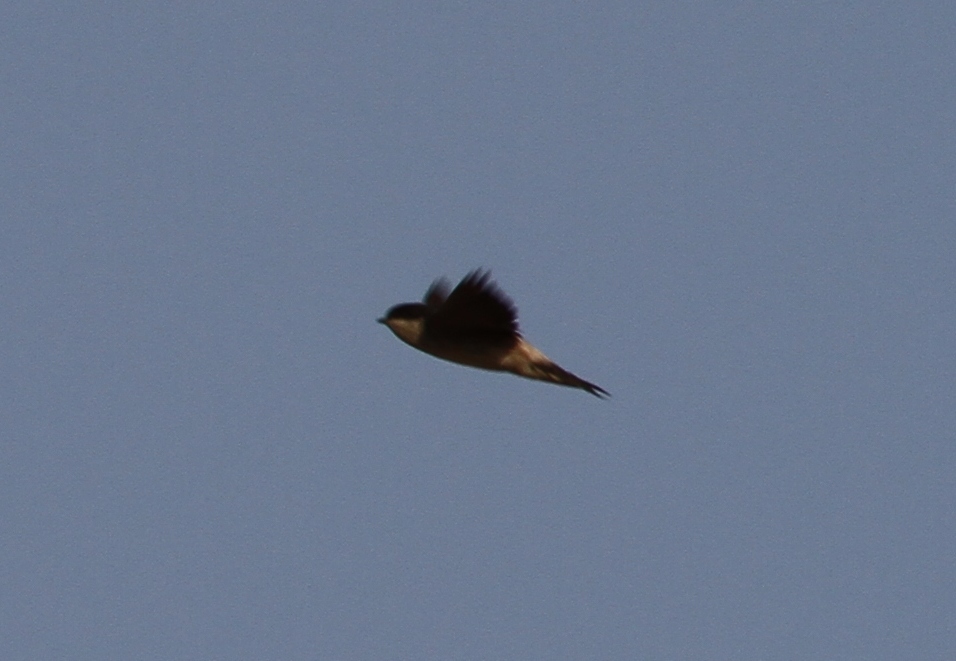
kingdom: Animalia
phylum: Chordata
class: Aves
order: Passeriformes
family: Hirundinidae
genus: Delichon
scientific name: Delichon urbicum
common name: Common house martin
